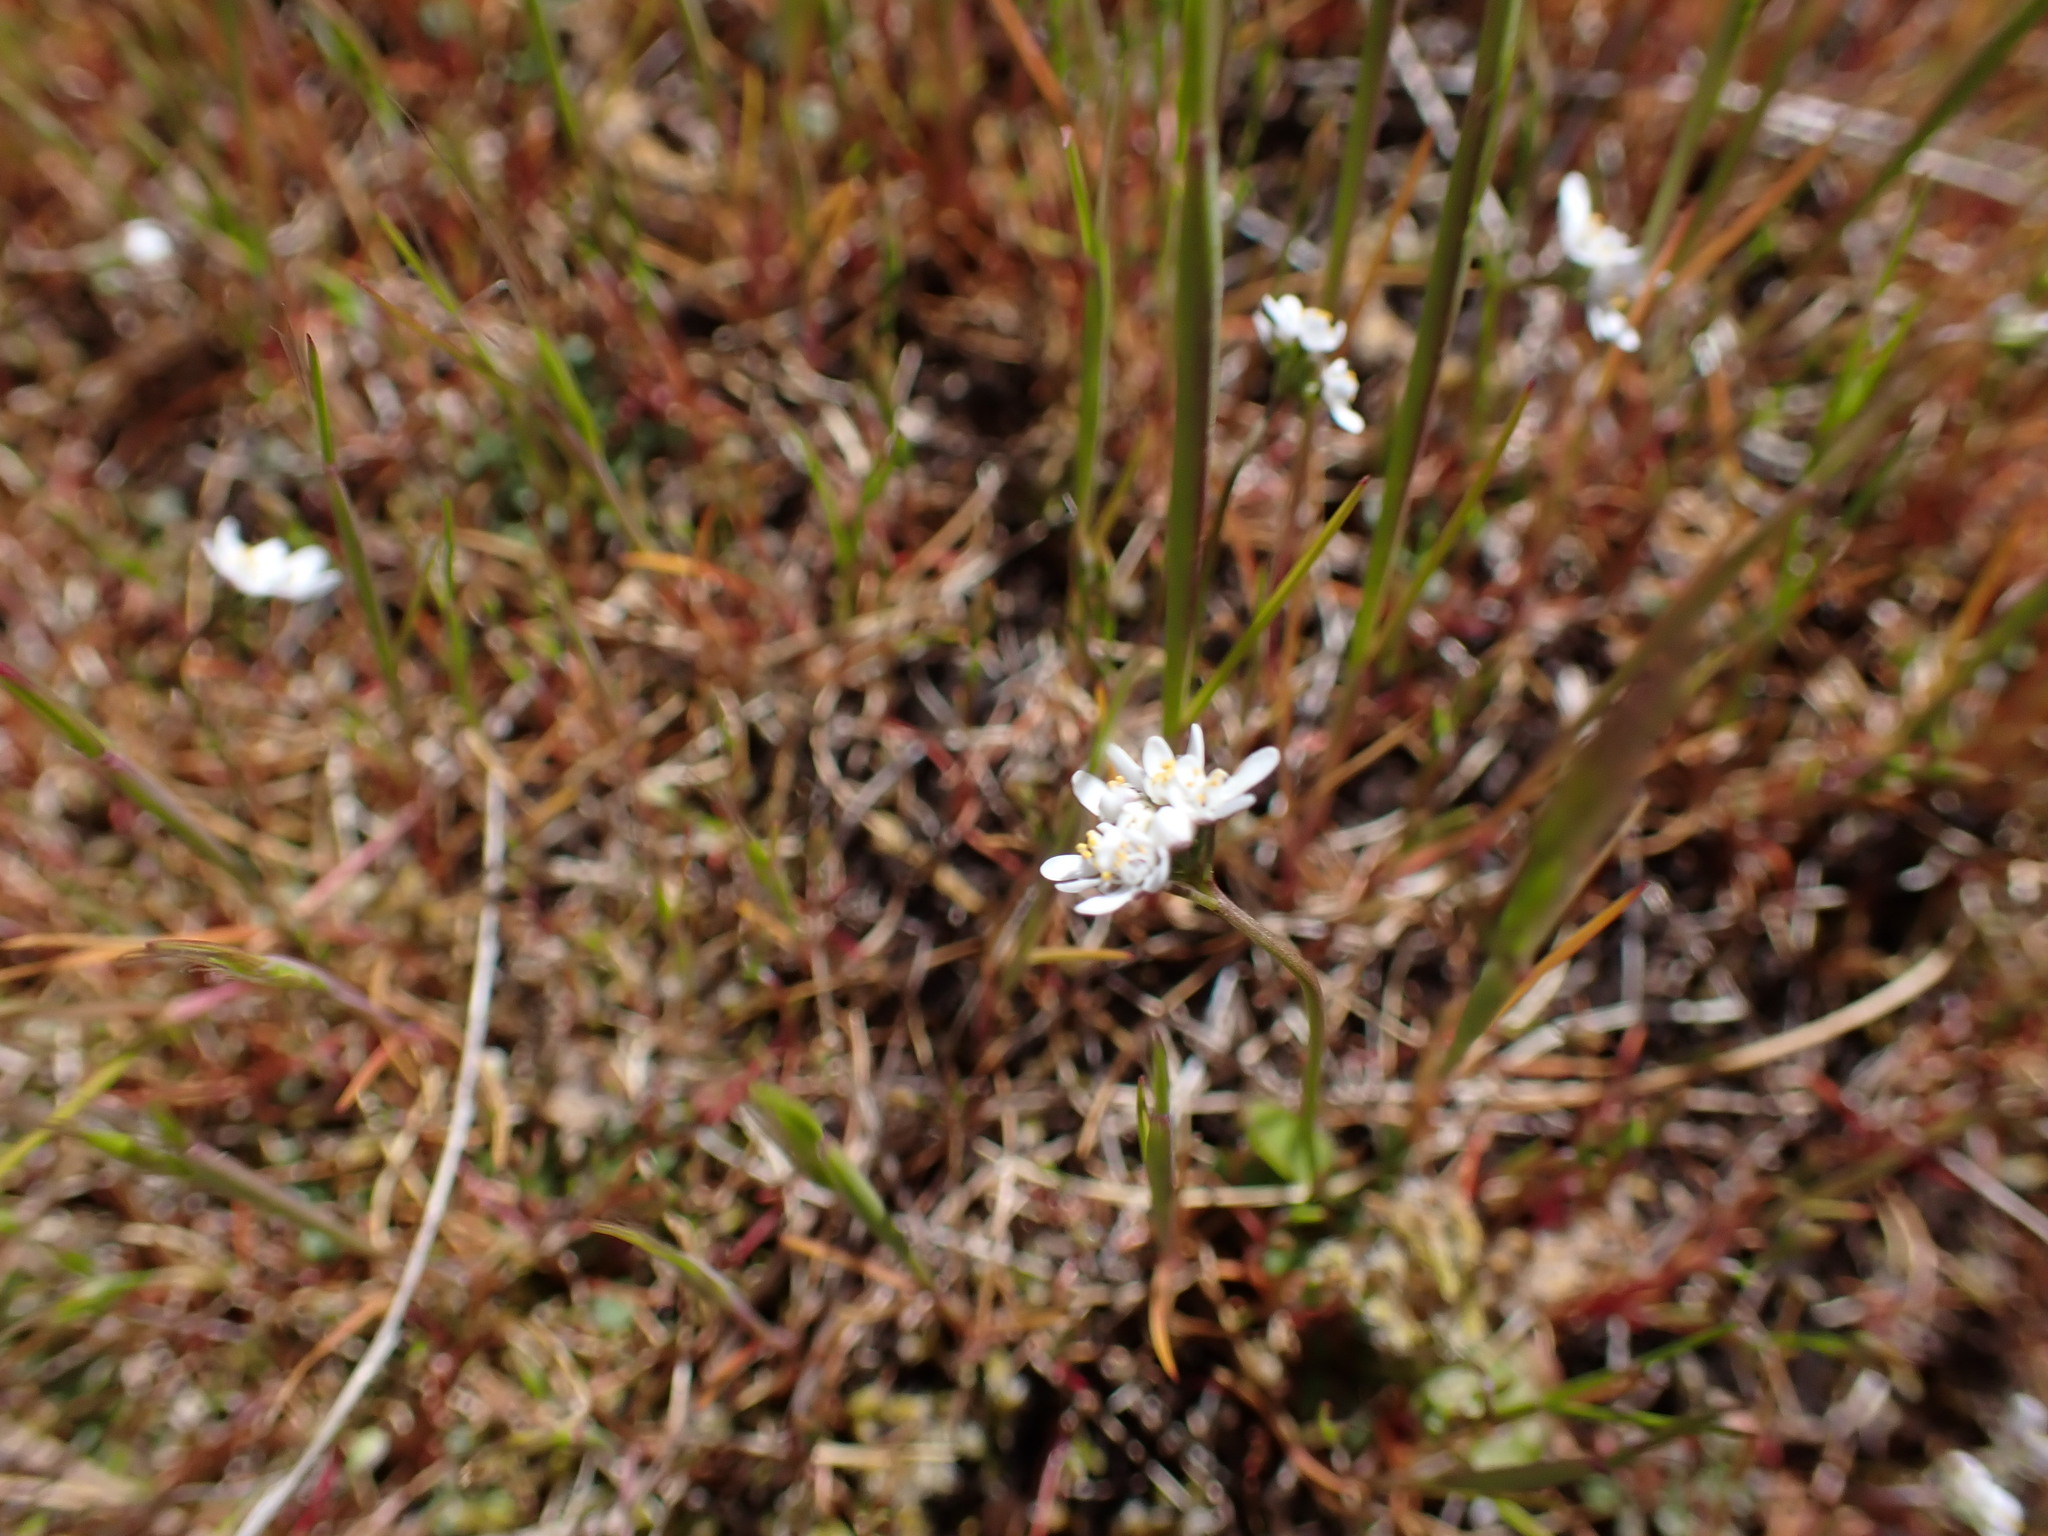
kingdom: Plantae
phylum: Tracheophyta
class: Magnoliopsida
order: Brassicales
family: Brassicaceae
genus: Teesdalia
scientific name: Teesdalia nudicaulis
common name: Shepherd's cress
